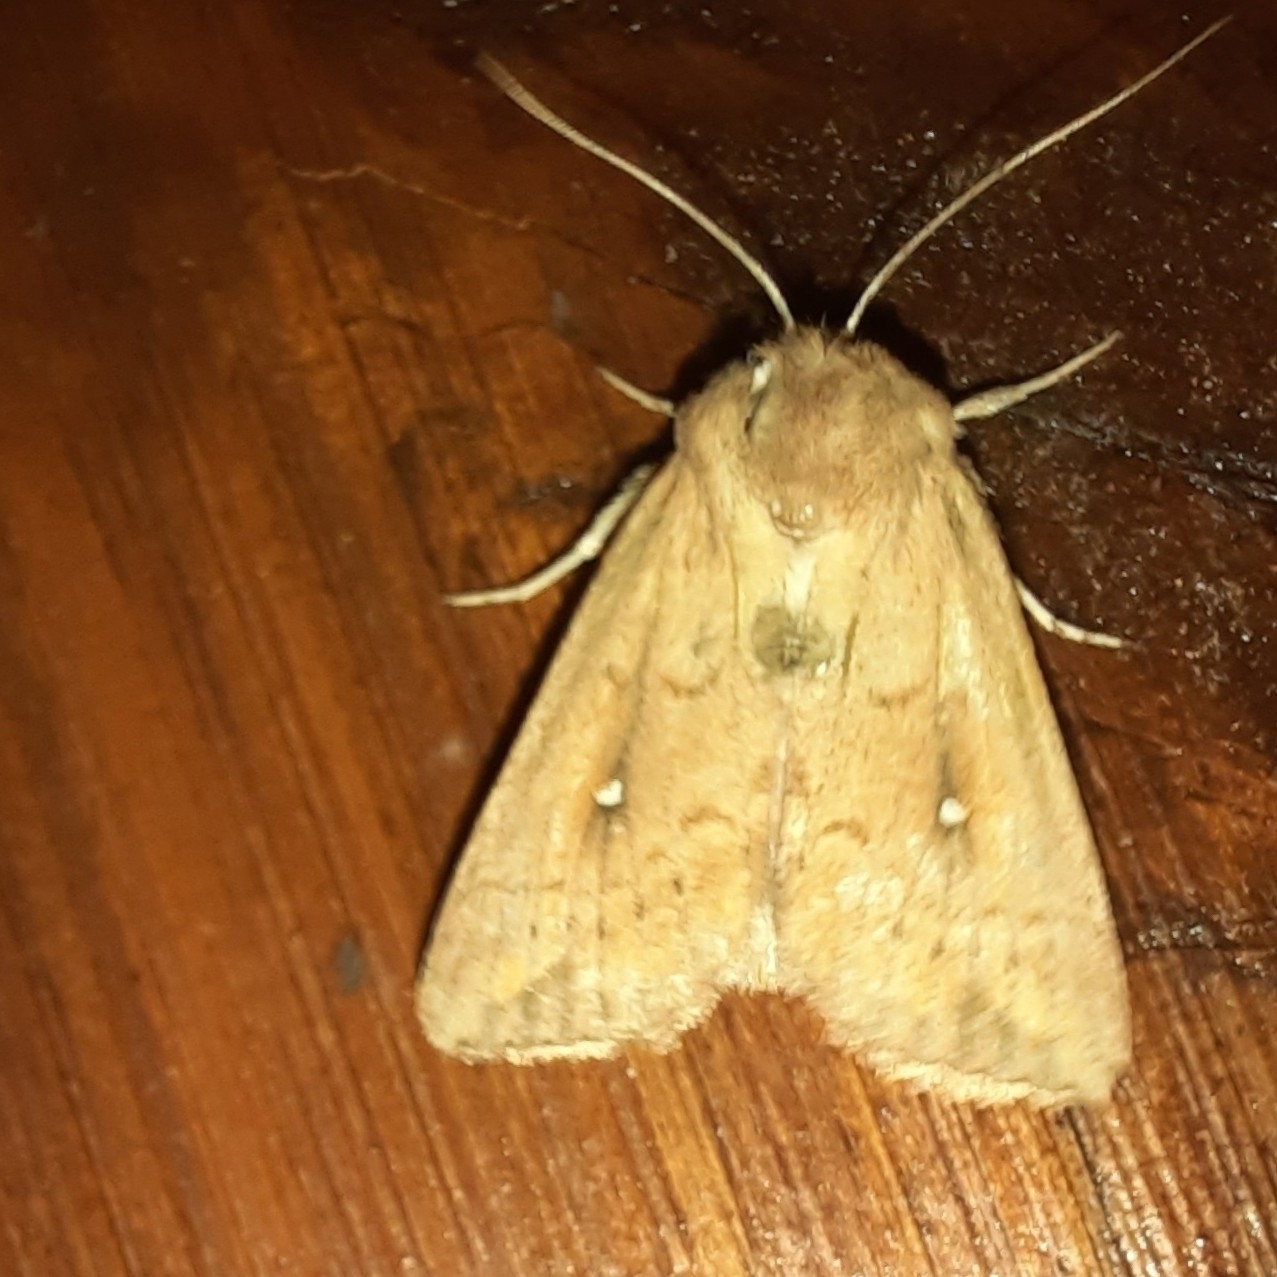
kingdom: Animalia
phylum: Arthropoda
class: Insecta
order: Lepidoptera
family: Noctuidae
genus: Mythimna
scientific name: Mythimna albipuncta
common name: White-point
